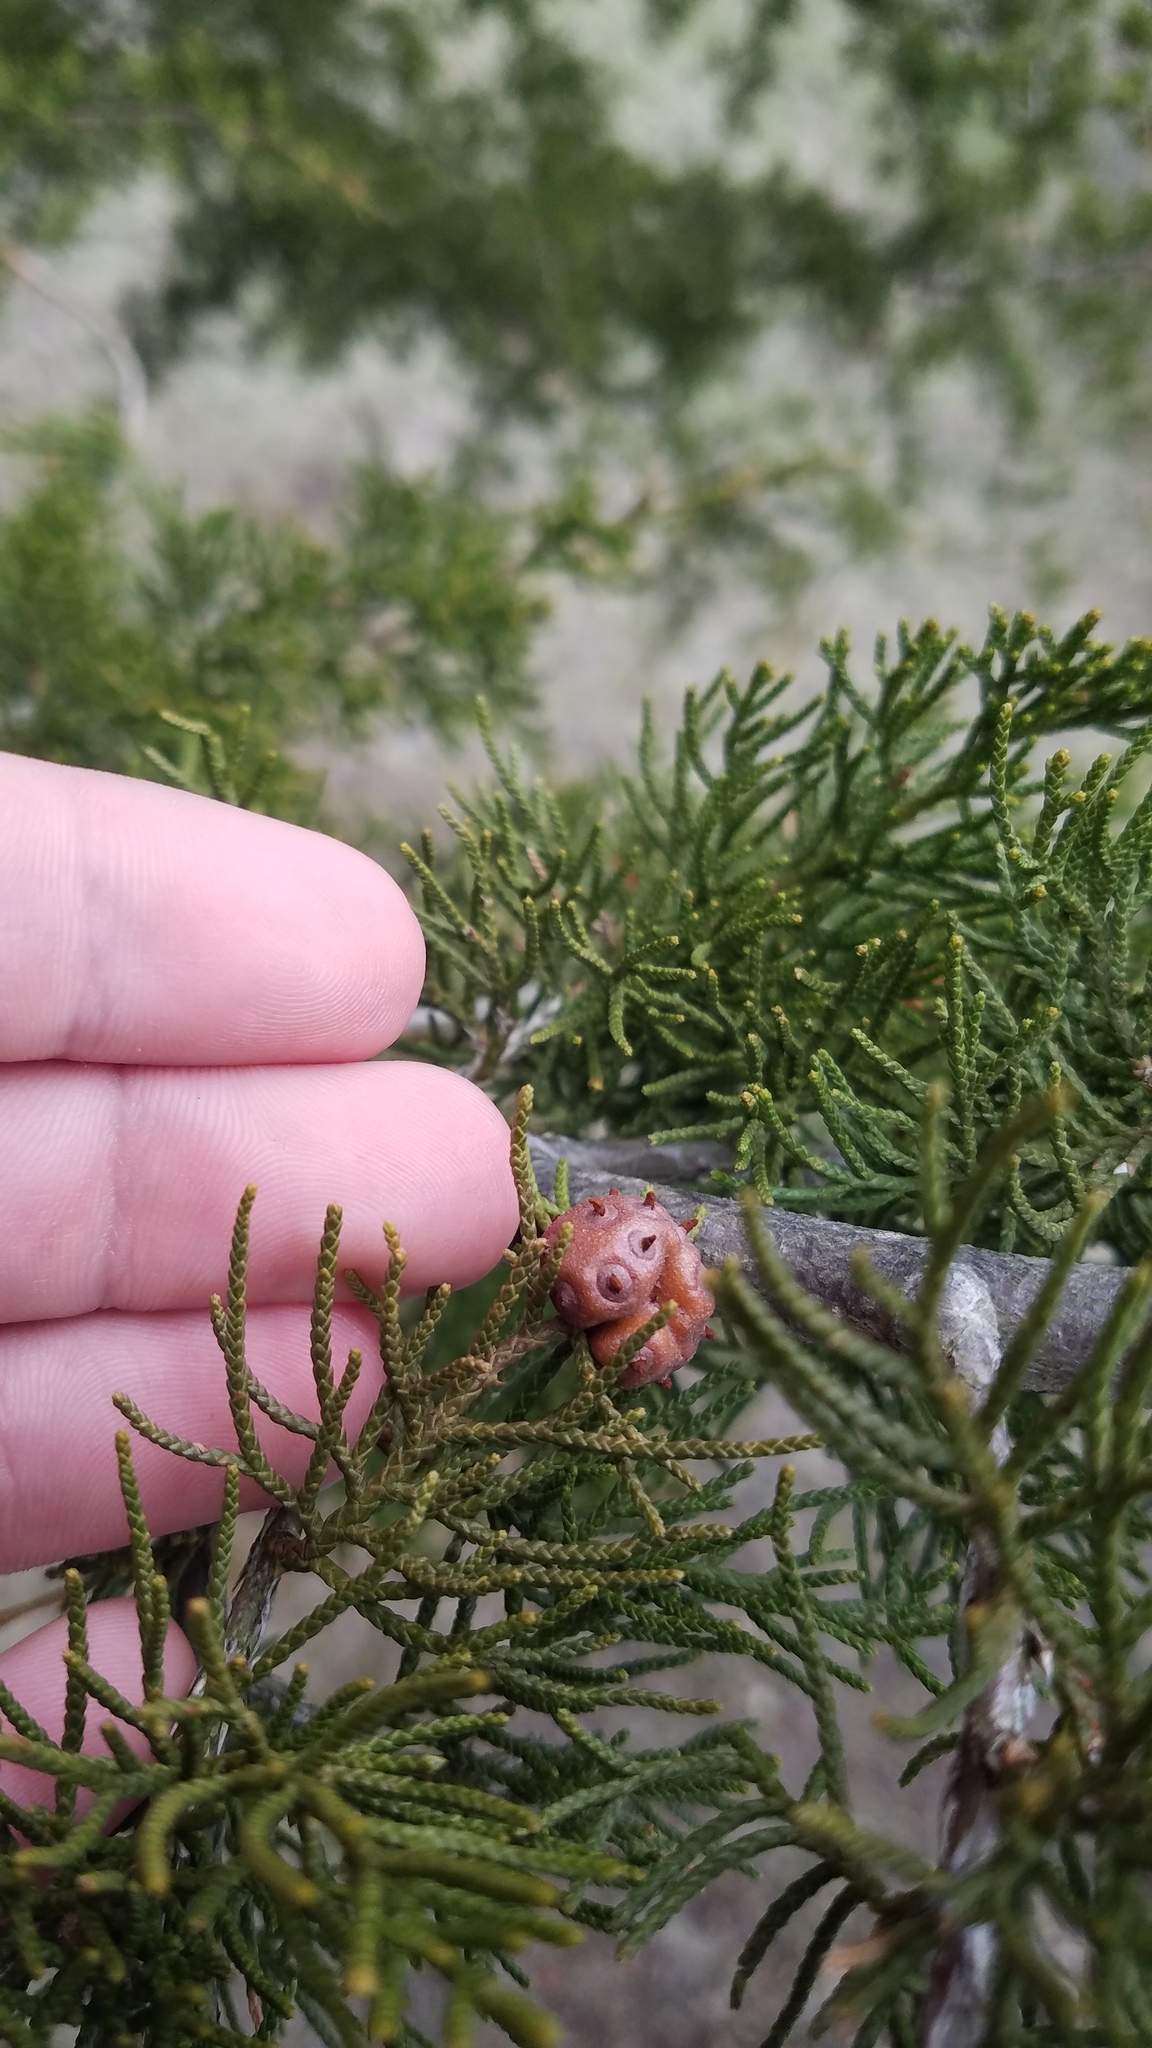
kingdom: Fungi
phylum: Basidiomycota
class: Pucciniomycetes
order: Pucciniales
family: Gymnosporangiaceae
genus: Gymnosporangium
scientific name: Gymnosporangium juniperi-virginianae
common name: Juniper-apple rust
